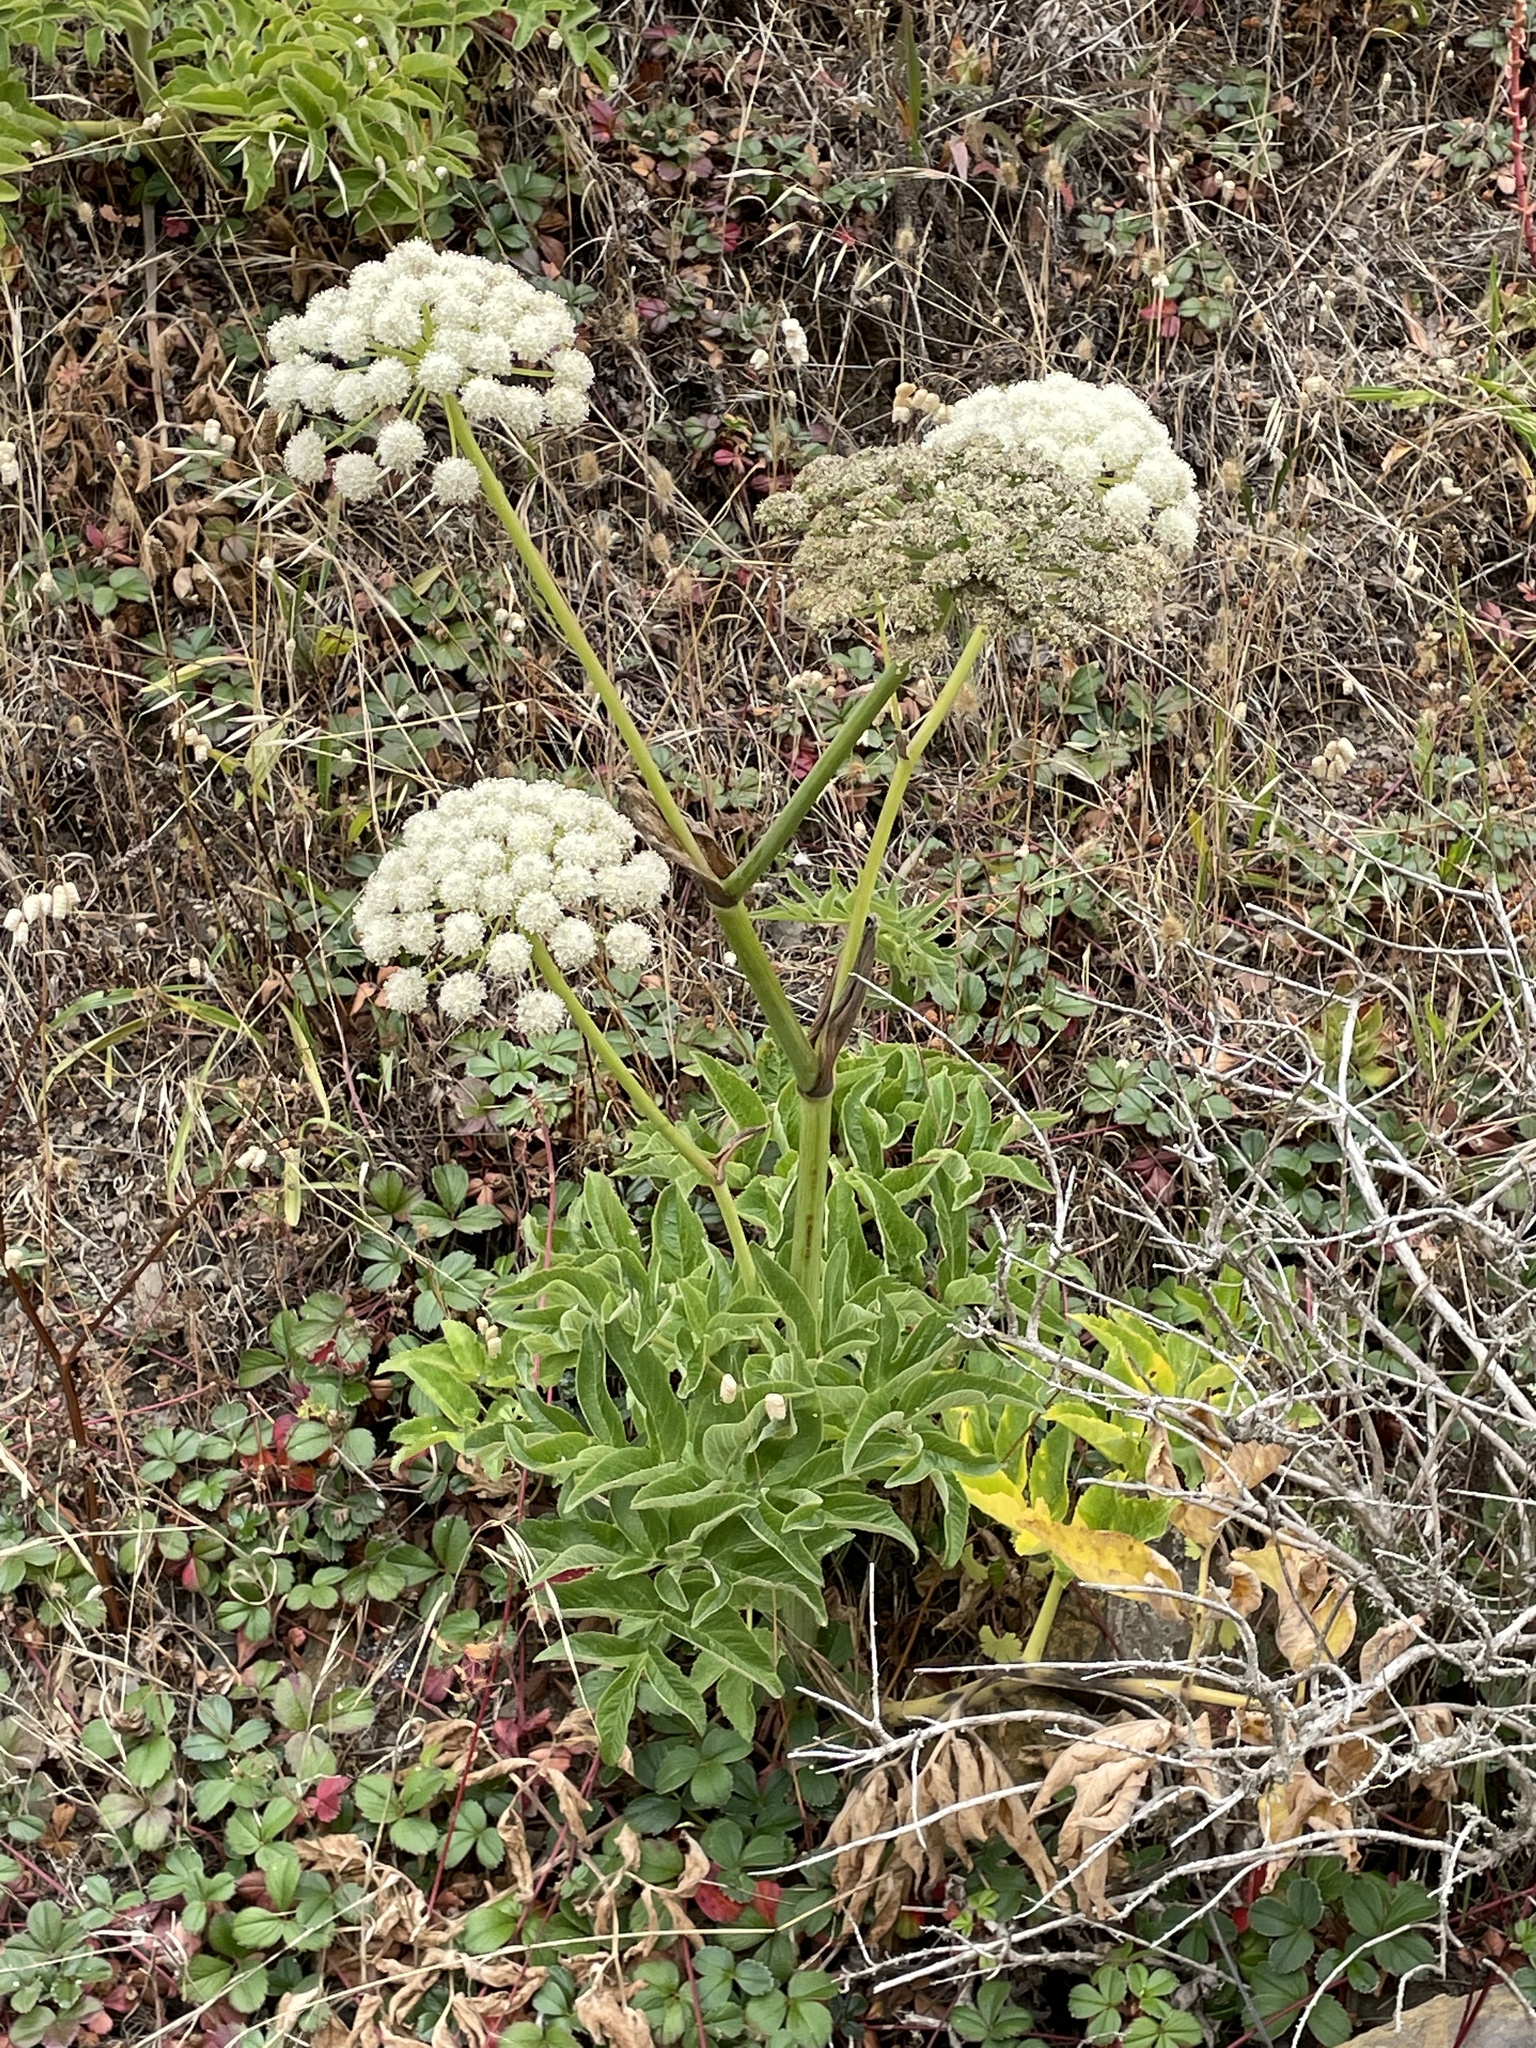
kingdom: Plantae
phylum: Tracheophyta
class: Magnoliopsida
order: Apiales
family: Apiaceae
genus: Angelica
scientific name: Angelica hendersonii
